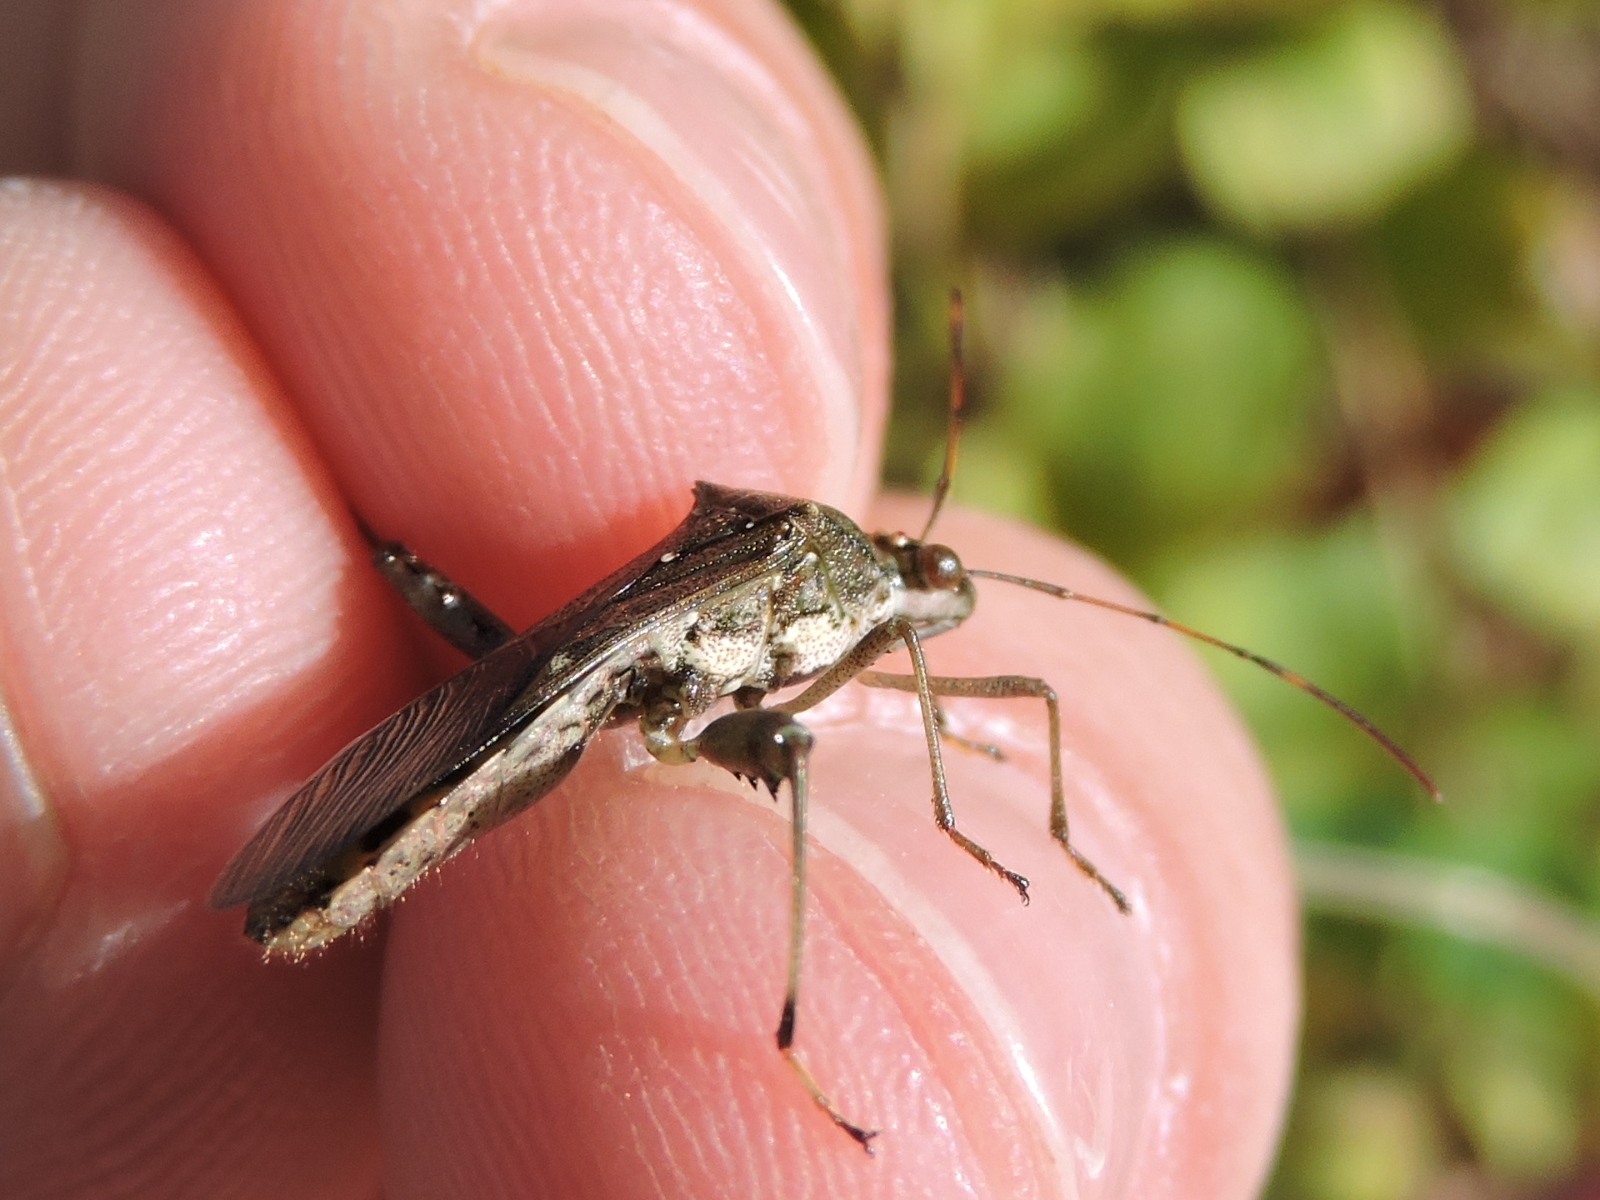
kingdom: Animalia
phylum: Arthropoda
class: Insecta
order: Hemiptera
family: Alydidae
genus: Hyalymenus
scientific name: Hyalymenus tarsatus
